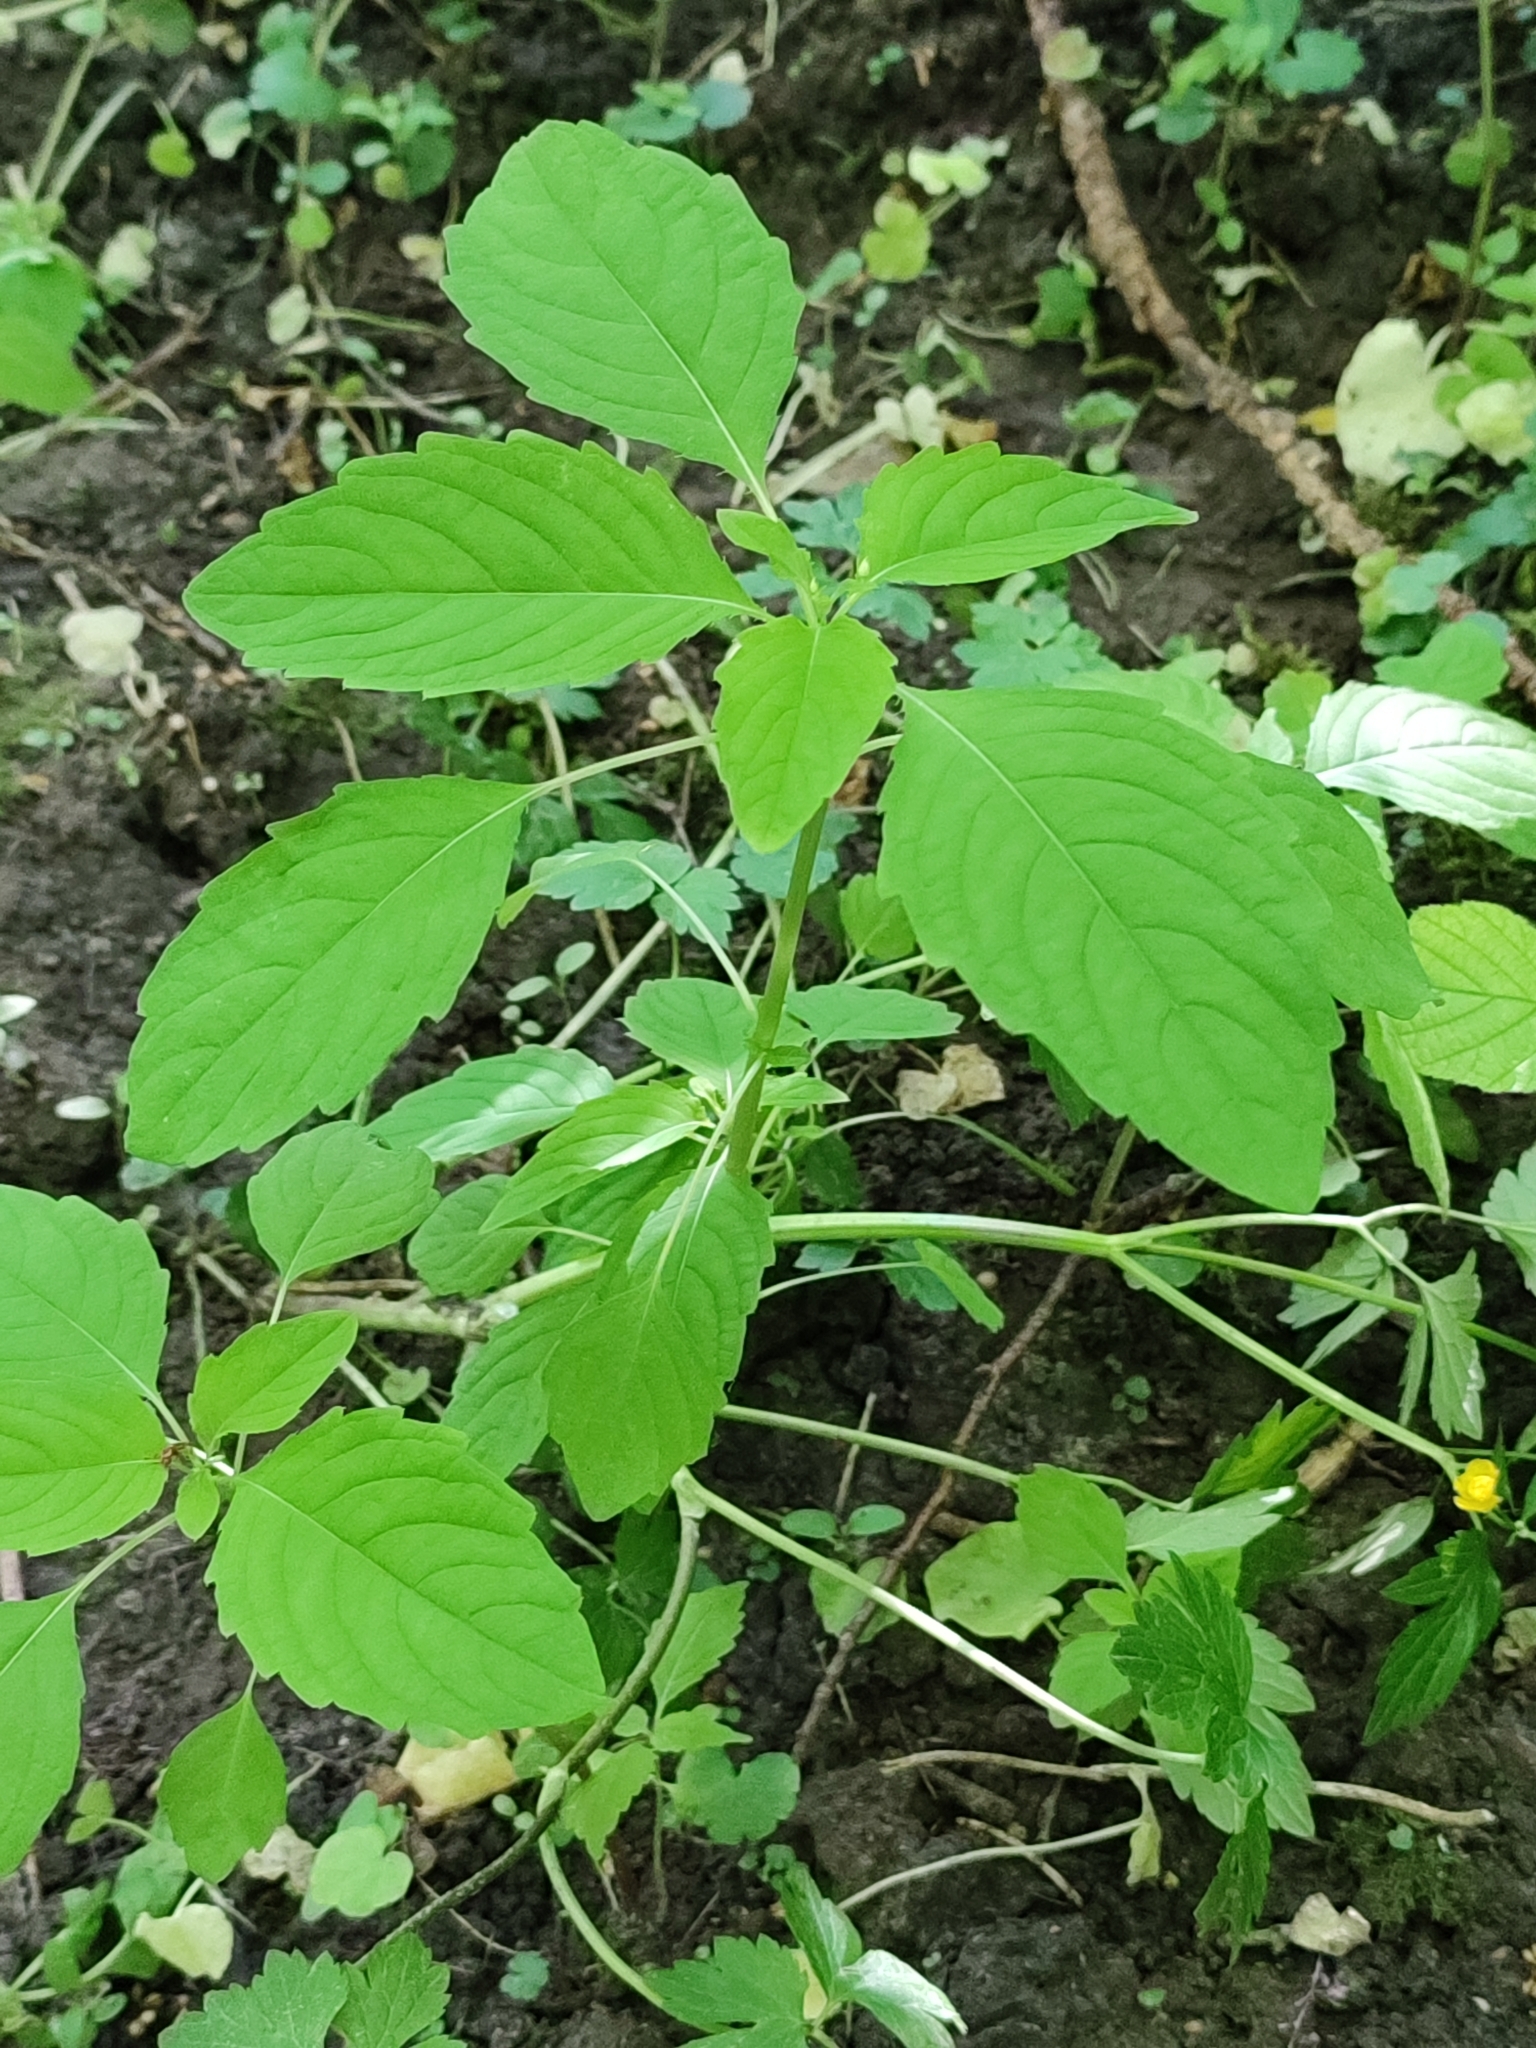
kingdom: Plantae
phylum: Tracheophyta
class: Magnoliopsida
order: Ericales
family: Balsaminaceae
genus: Impatiens
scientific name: Impatiens noli-tangere
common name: Touch-me-not balsam
